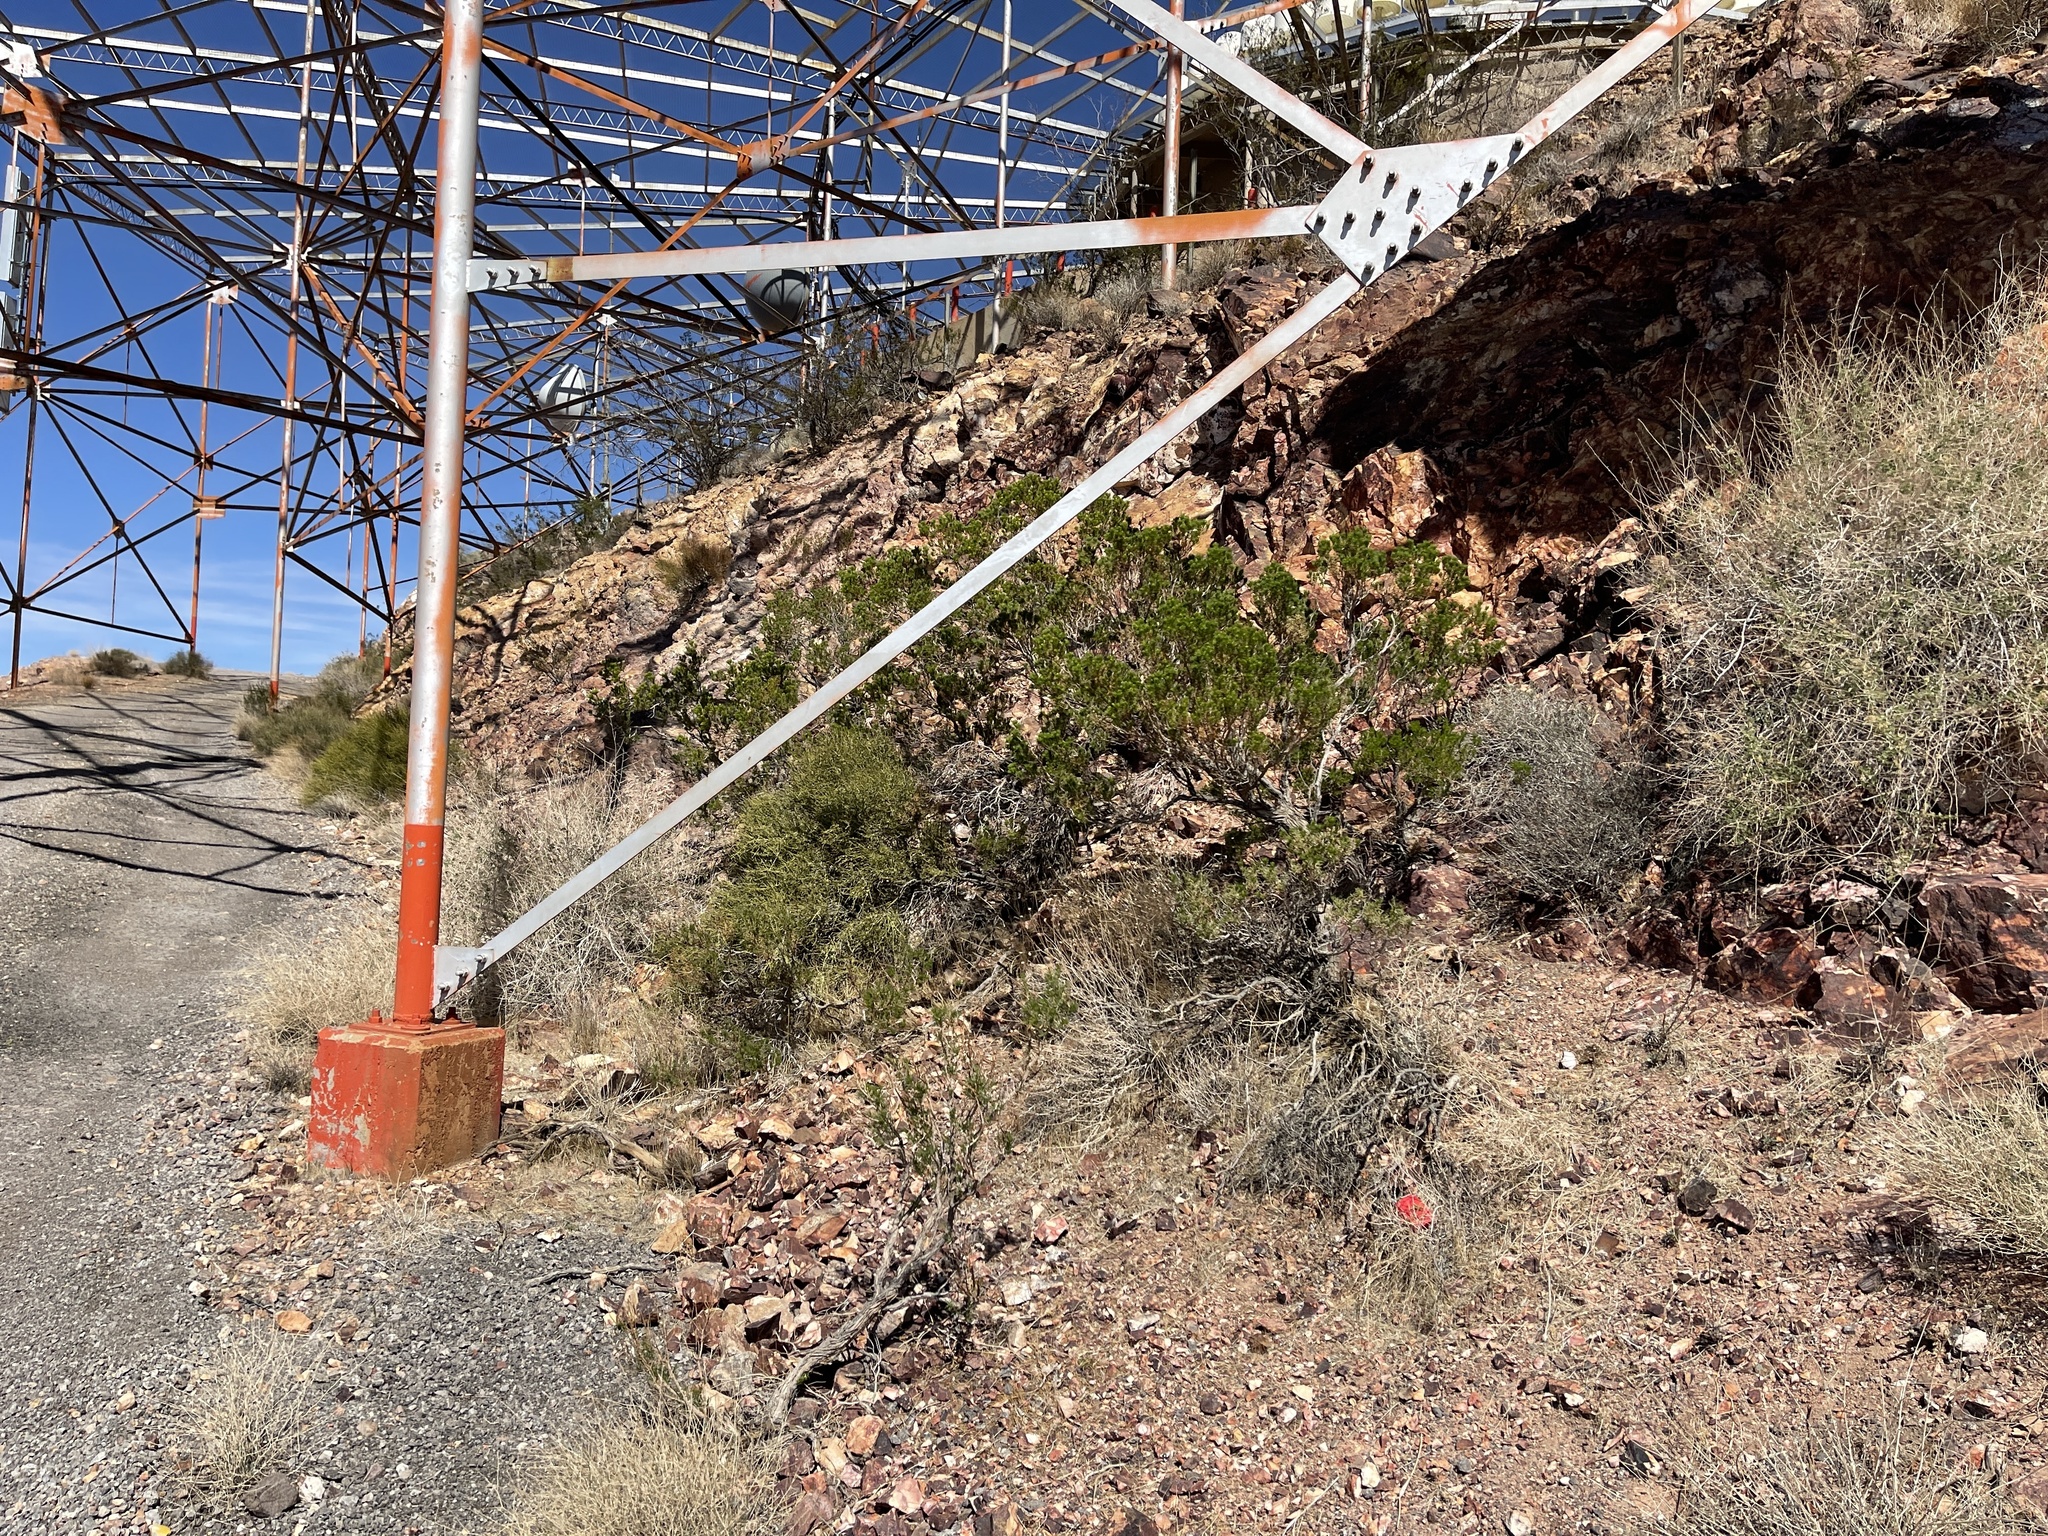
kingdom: Plantae
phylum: Tracheophyta
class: Magnoliopsida
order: Asterales
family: Asteraceae
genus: Peucephyllum
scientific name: Peucephyllum schottii
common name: Pygmy-cedar
